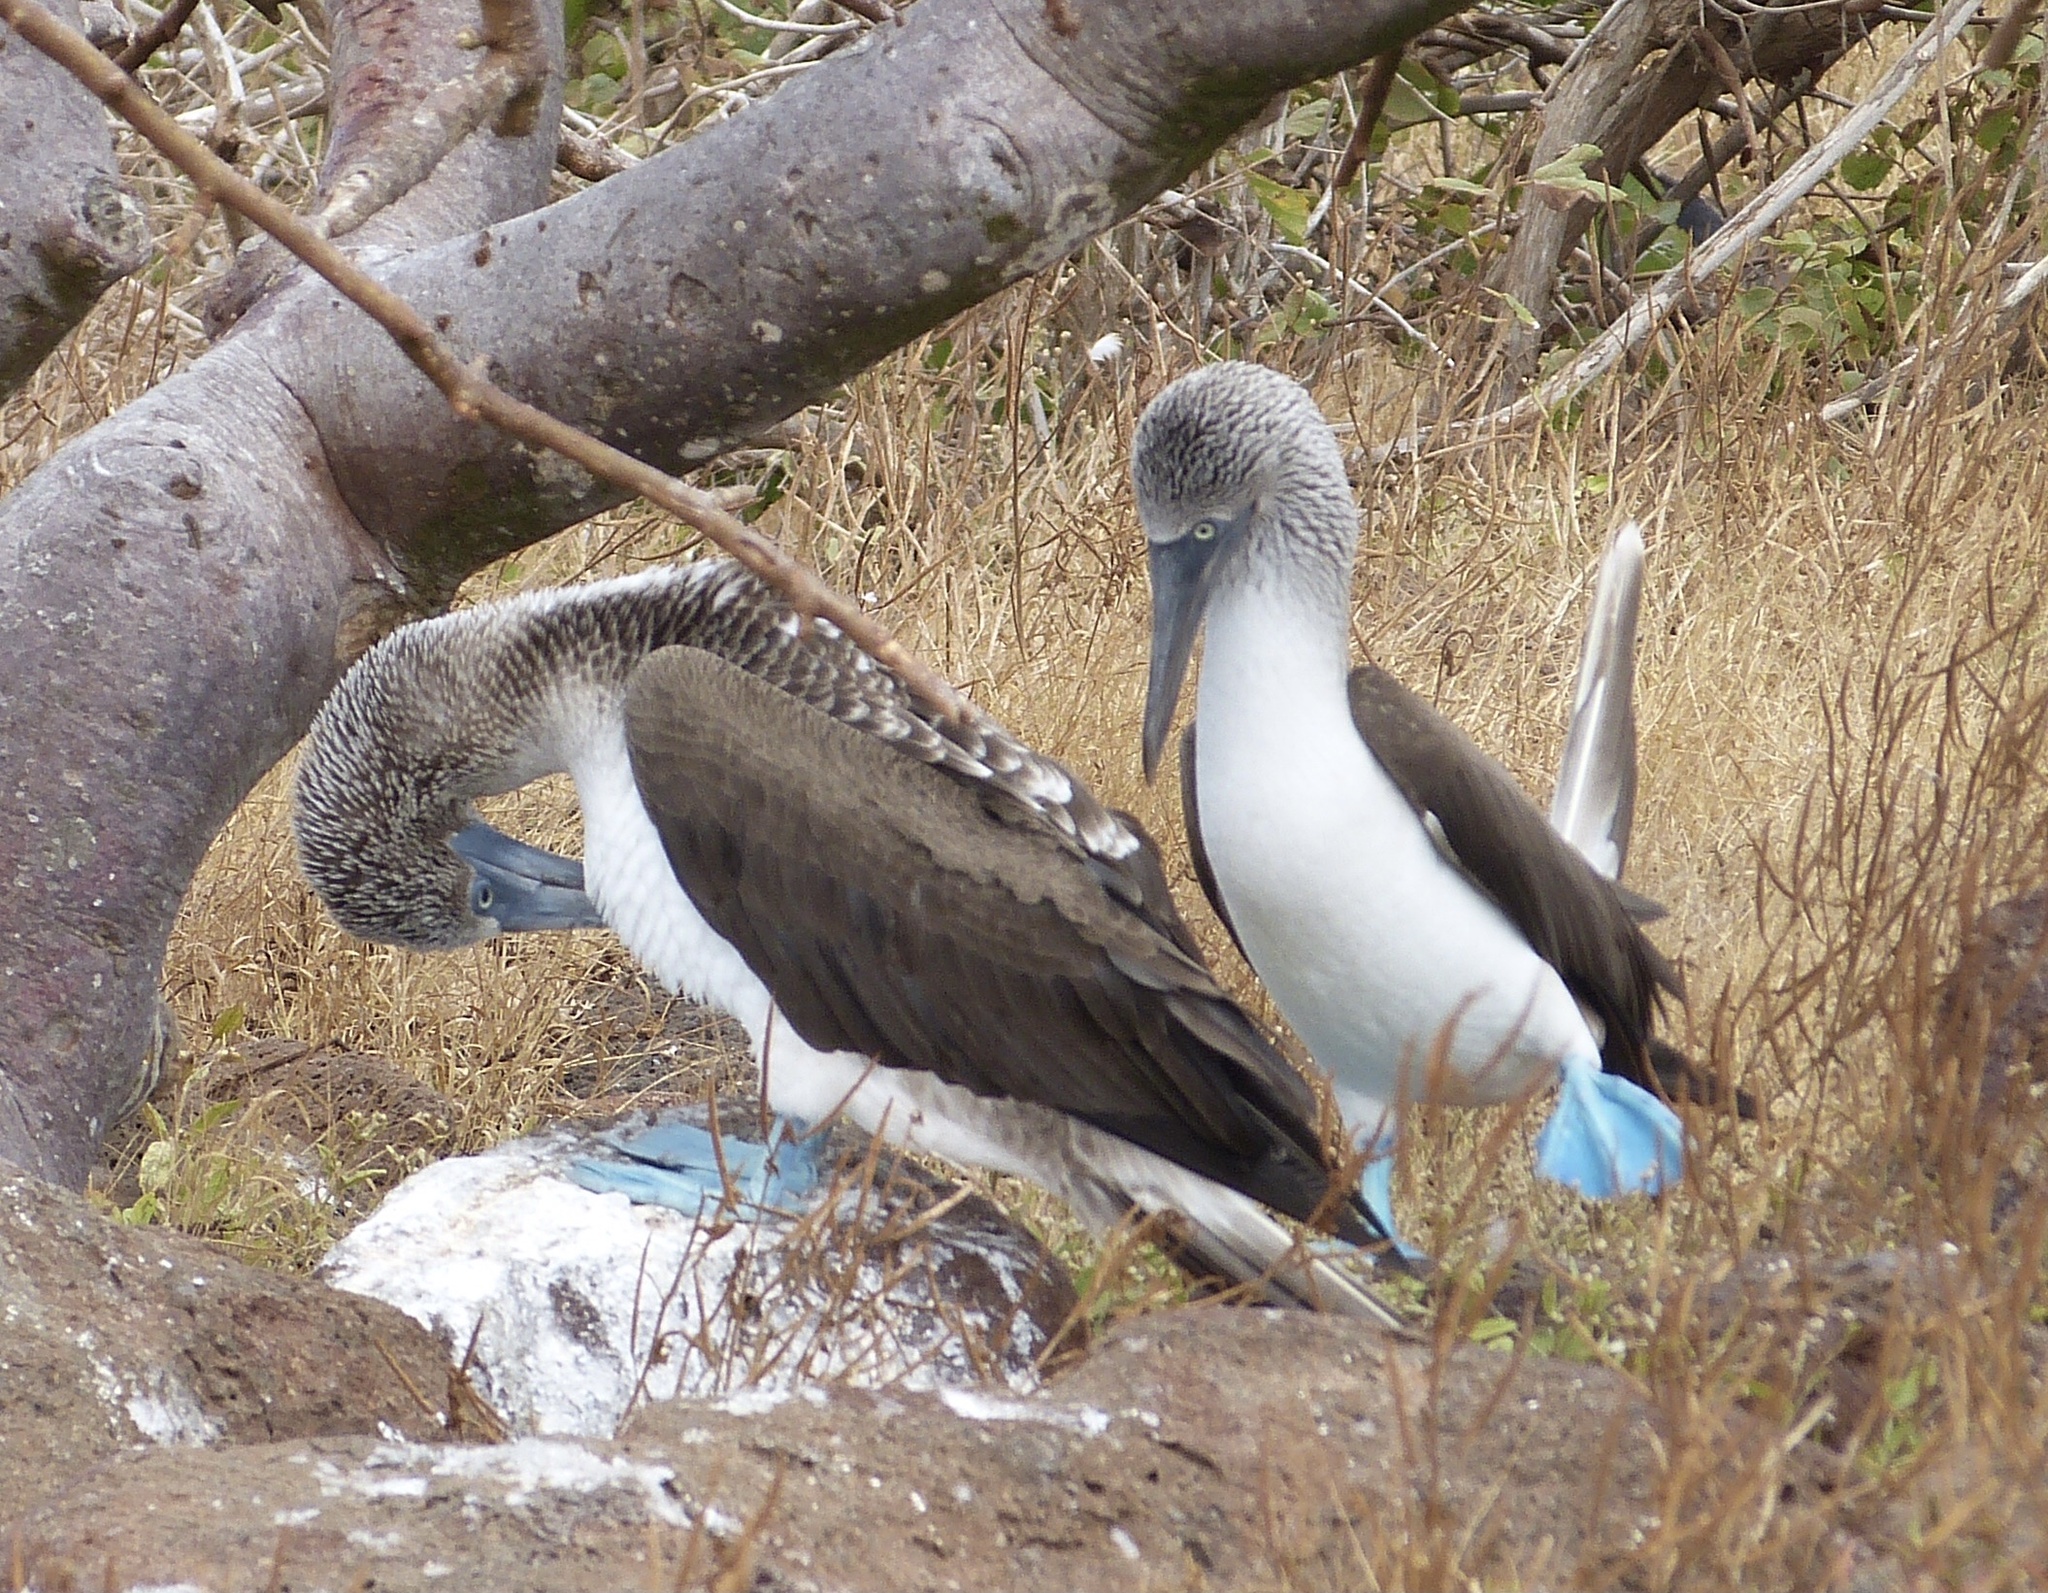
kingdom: Animalia
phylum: Chordata
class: Aves
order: Suliformes
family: Sulidae
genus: Sula
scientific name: Sula nebouxii
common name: Blue-footed booby
